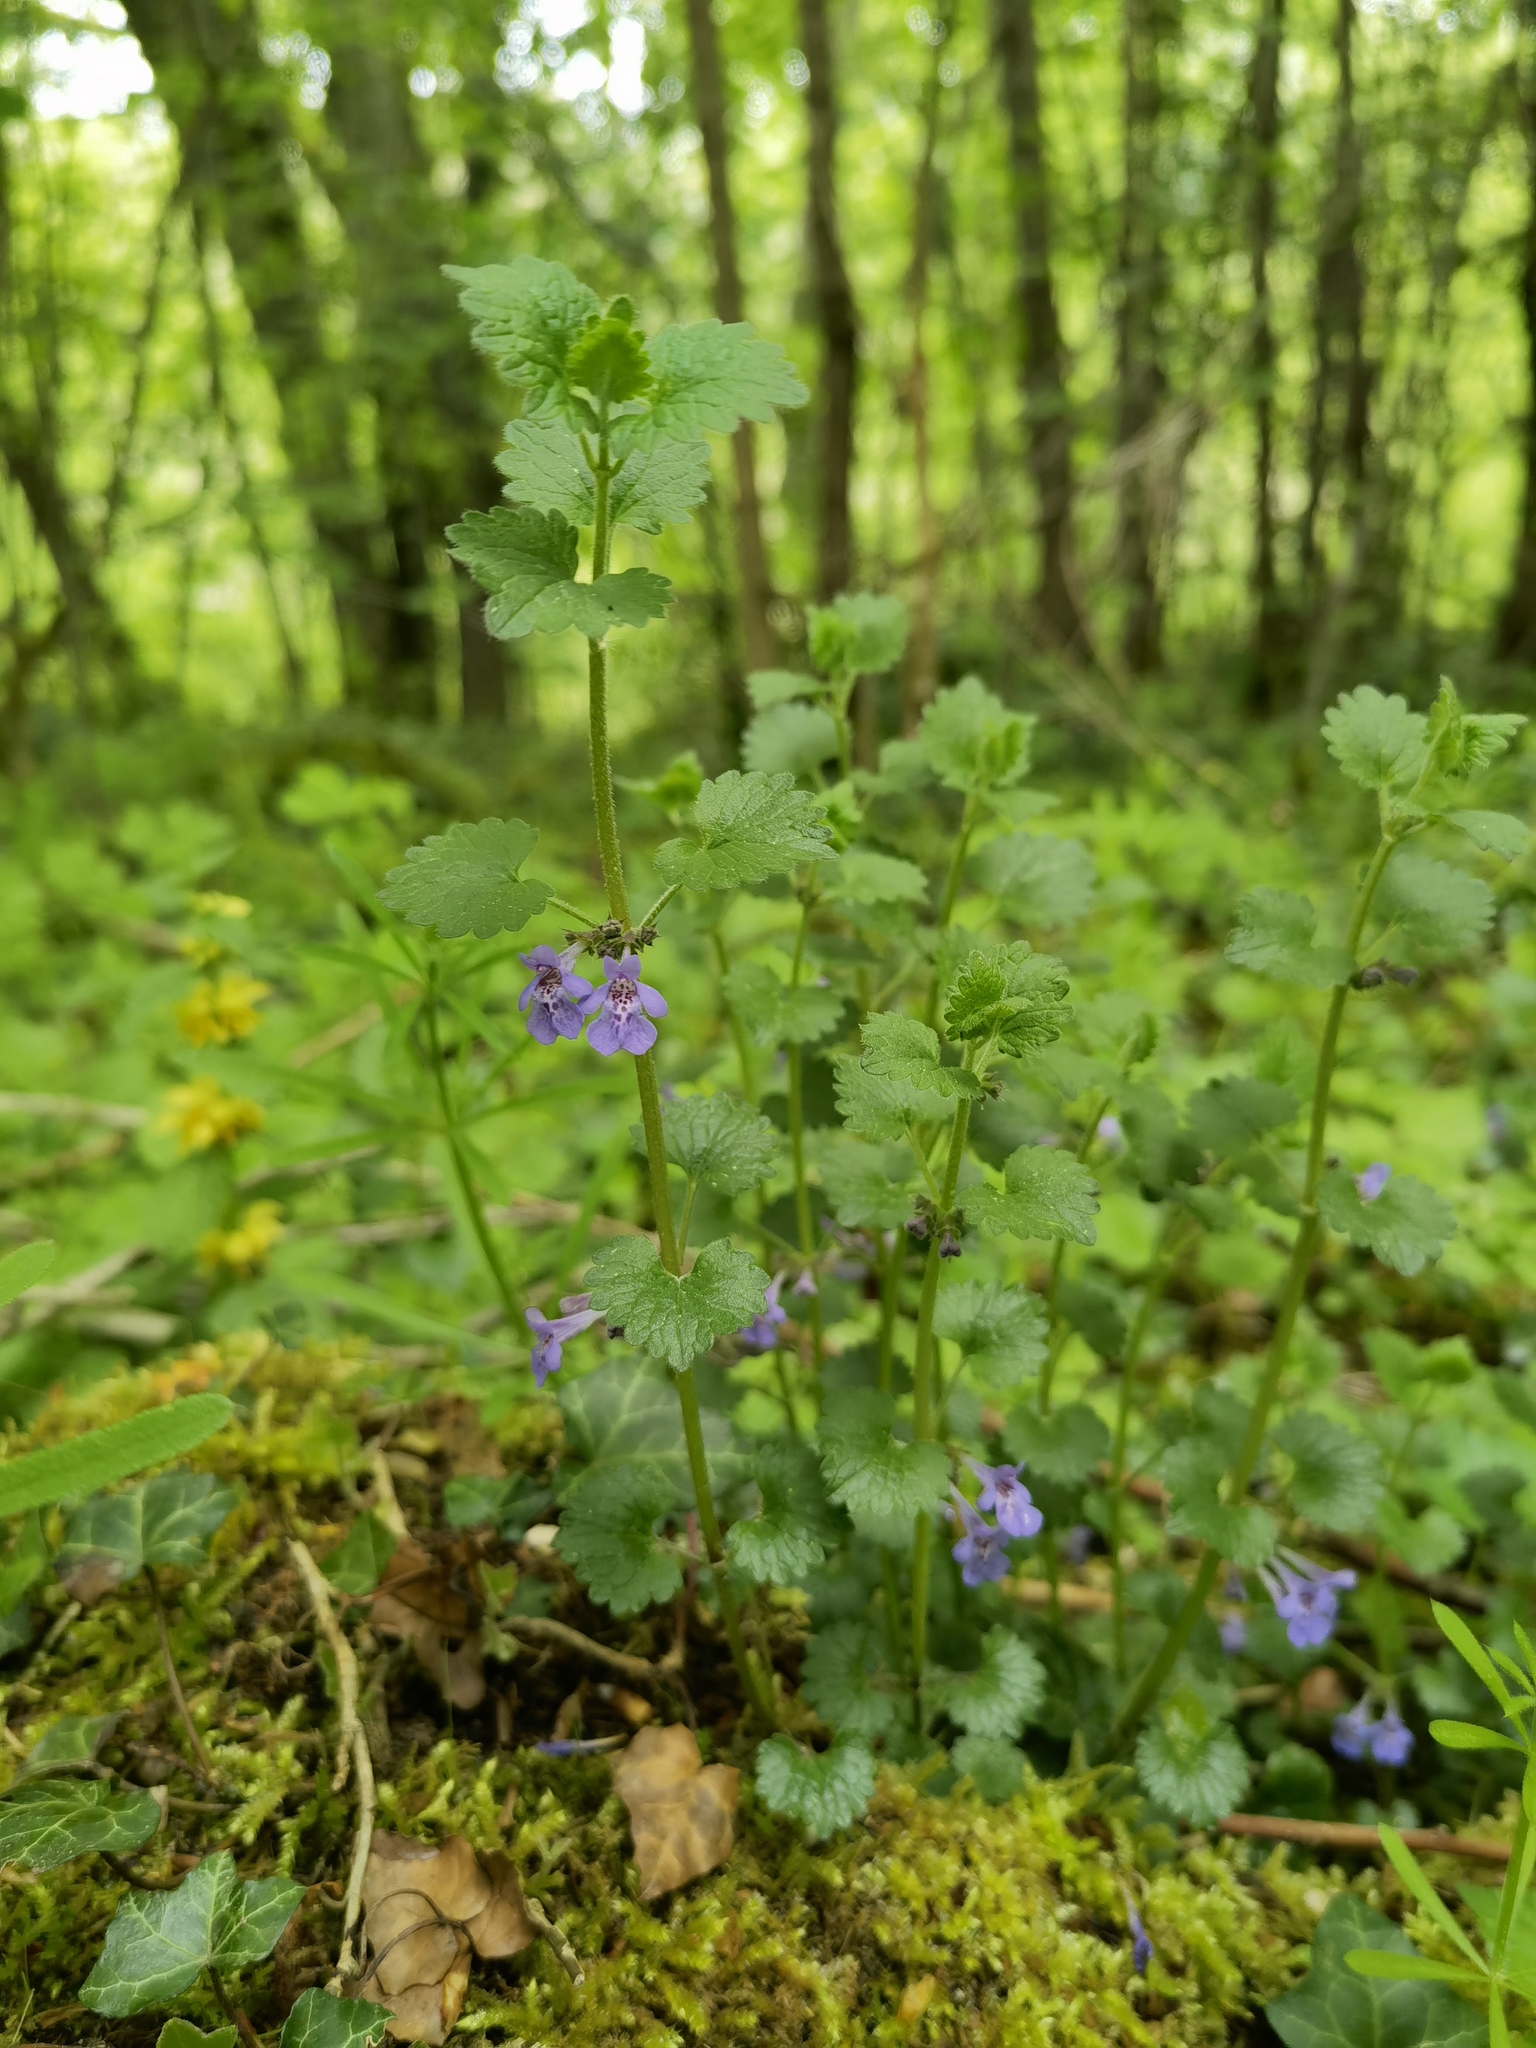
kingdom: Plantae
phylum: Tracheophyta
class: Magnoliopsida
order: Lamiales
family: Lamiaceae
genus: Glechoma
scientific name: Glechoma hederacea
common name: Ground ivy
